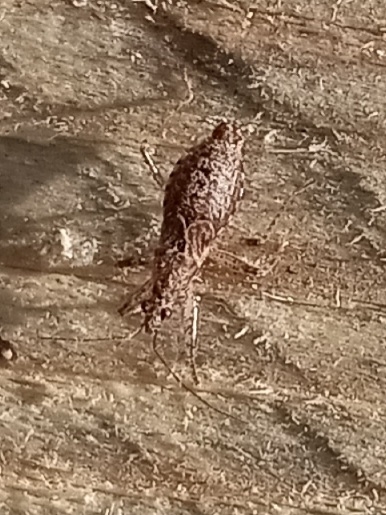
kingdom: Animalia
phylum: Arthropoda
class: Insecta
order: Hemiptera
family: Nabidae
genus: Hoplistoscelis
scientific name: Hoplistoscelis pallescens
